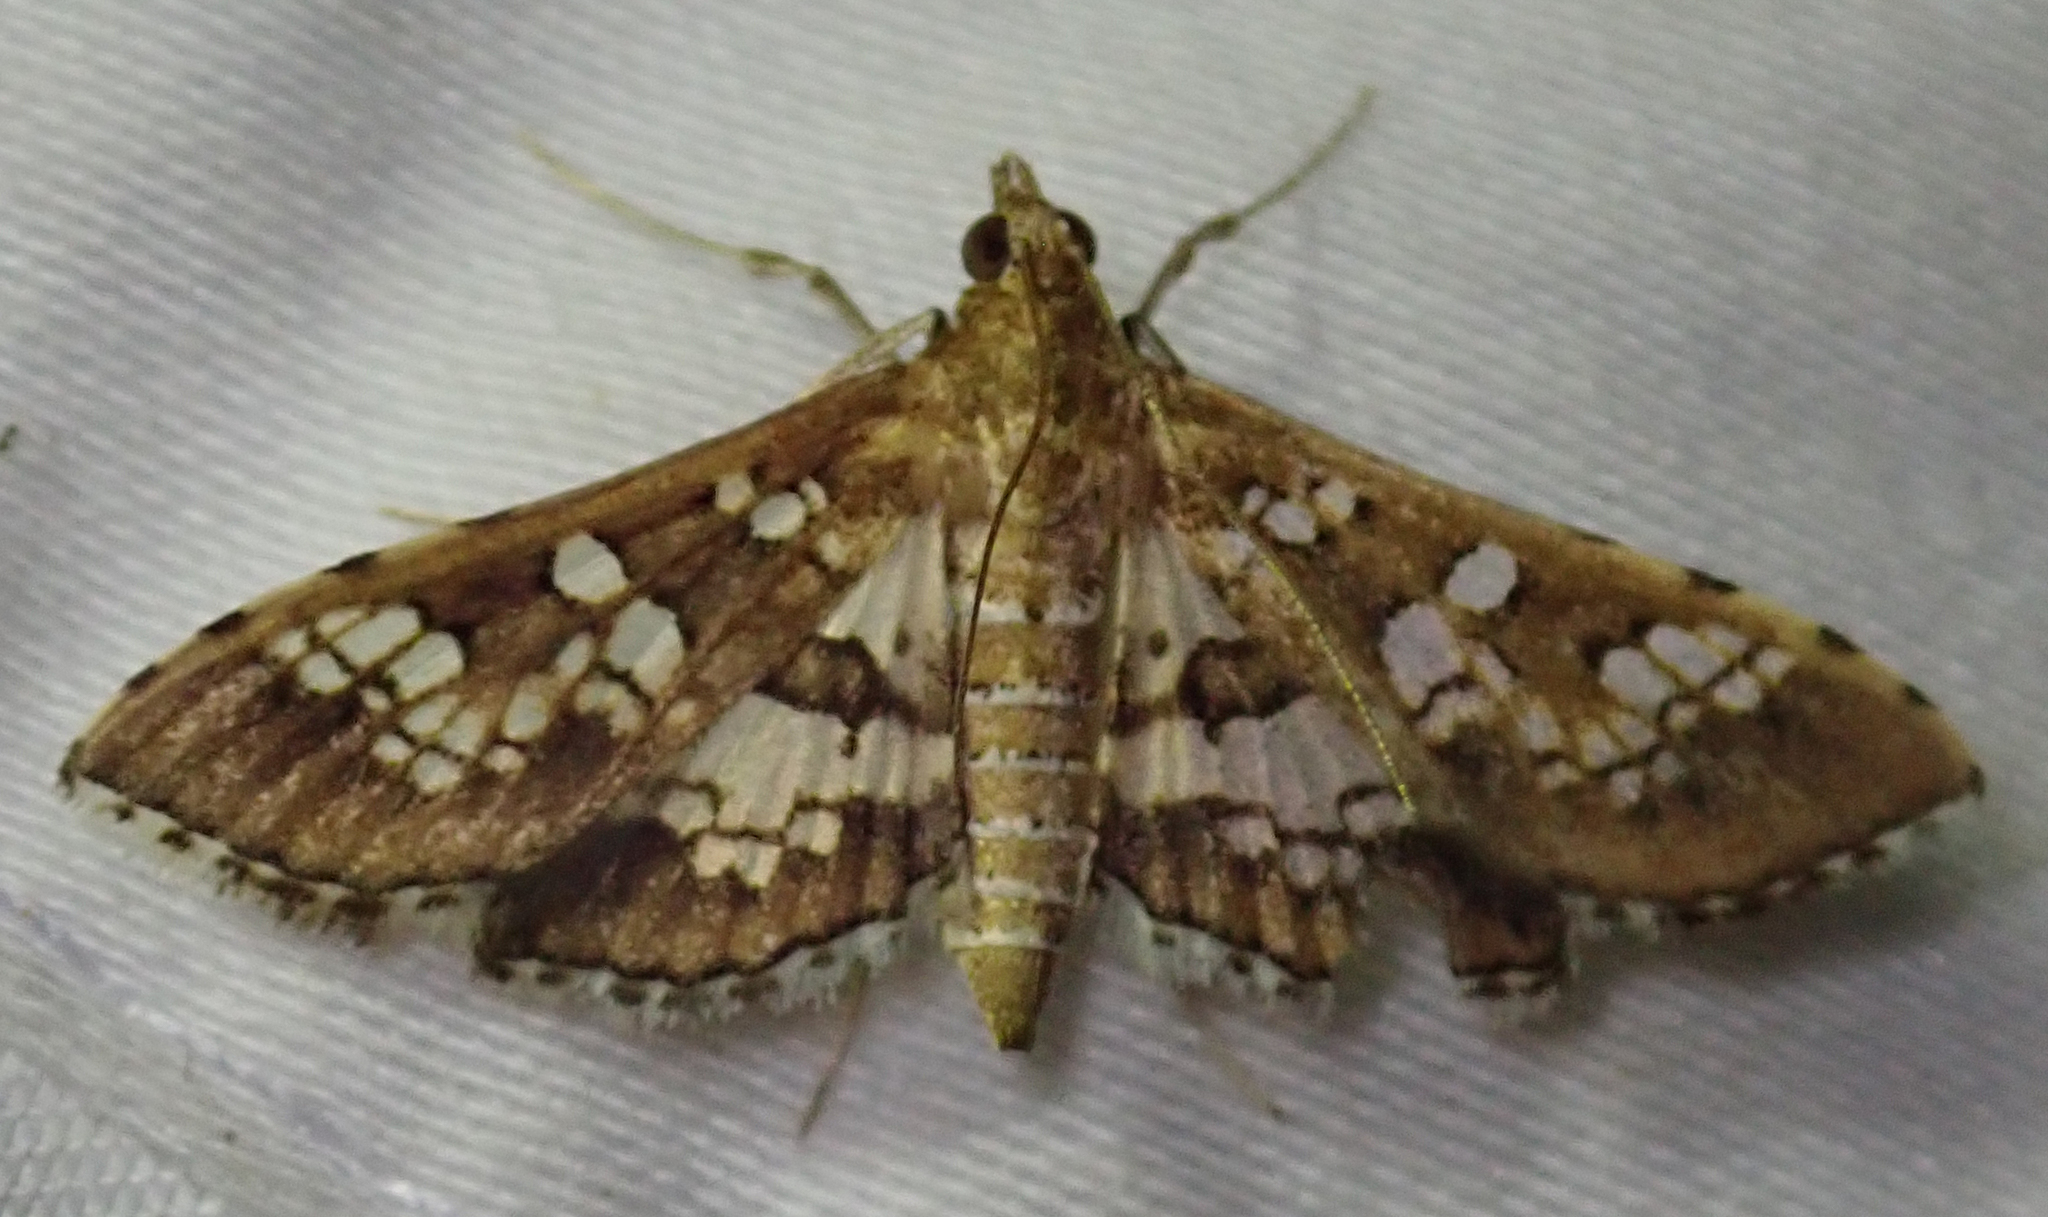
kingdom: Animalia
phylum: Arthropoda
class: Insecta
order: Lepidoptera
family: Crambidae
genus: Sameodes
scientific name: Sameodes cancellalis
